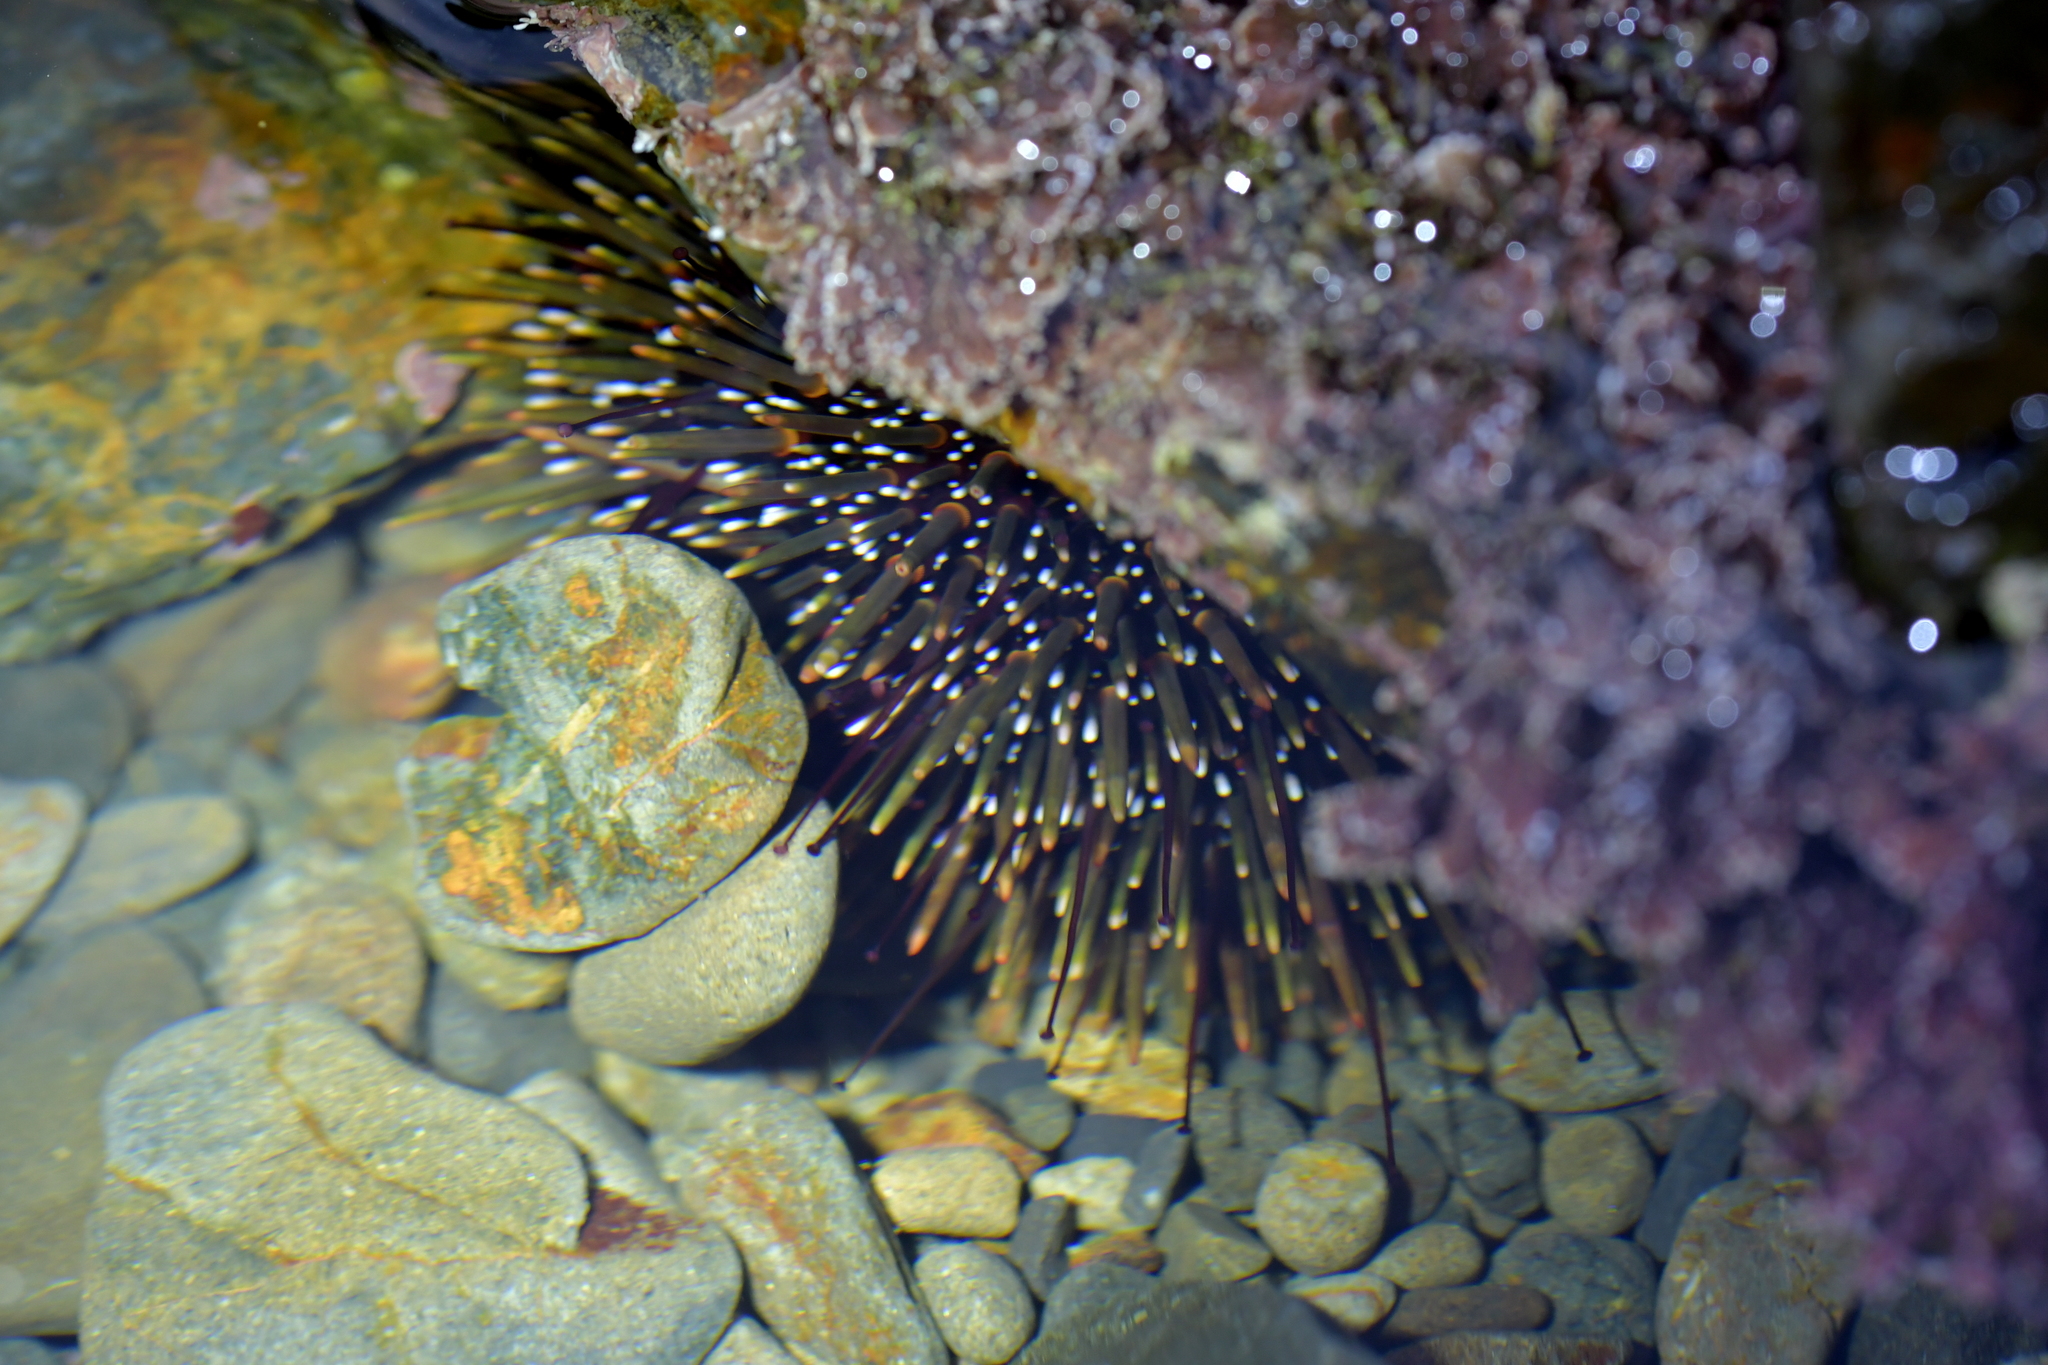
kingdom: Animalia
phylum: Echinodermata
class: Echinoidea
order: Camarodonta
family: Echinometridae
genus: Evechinus
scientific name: Evechinus chloroticus
